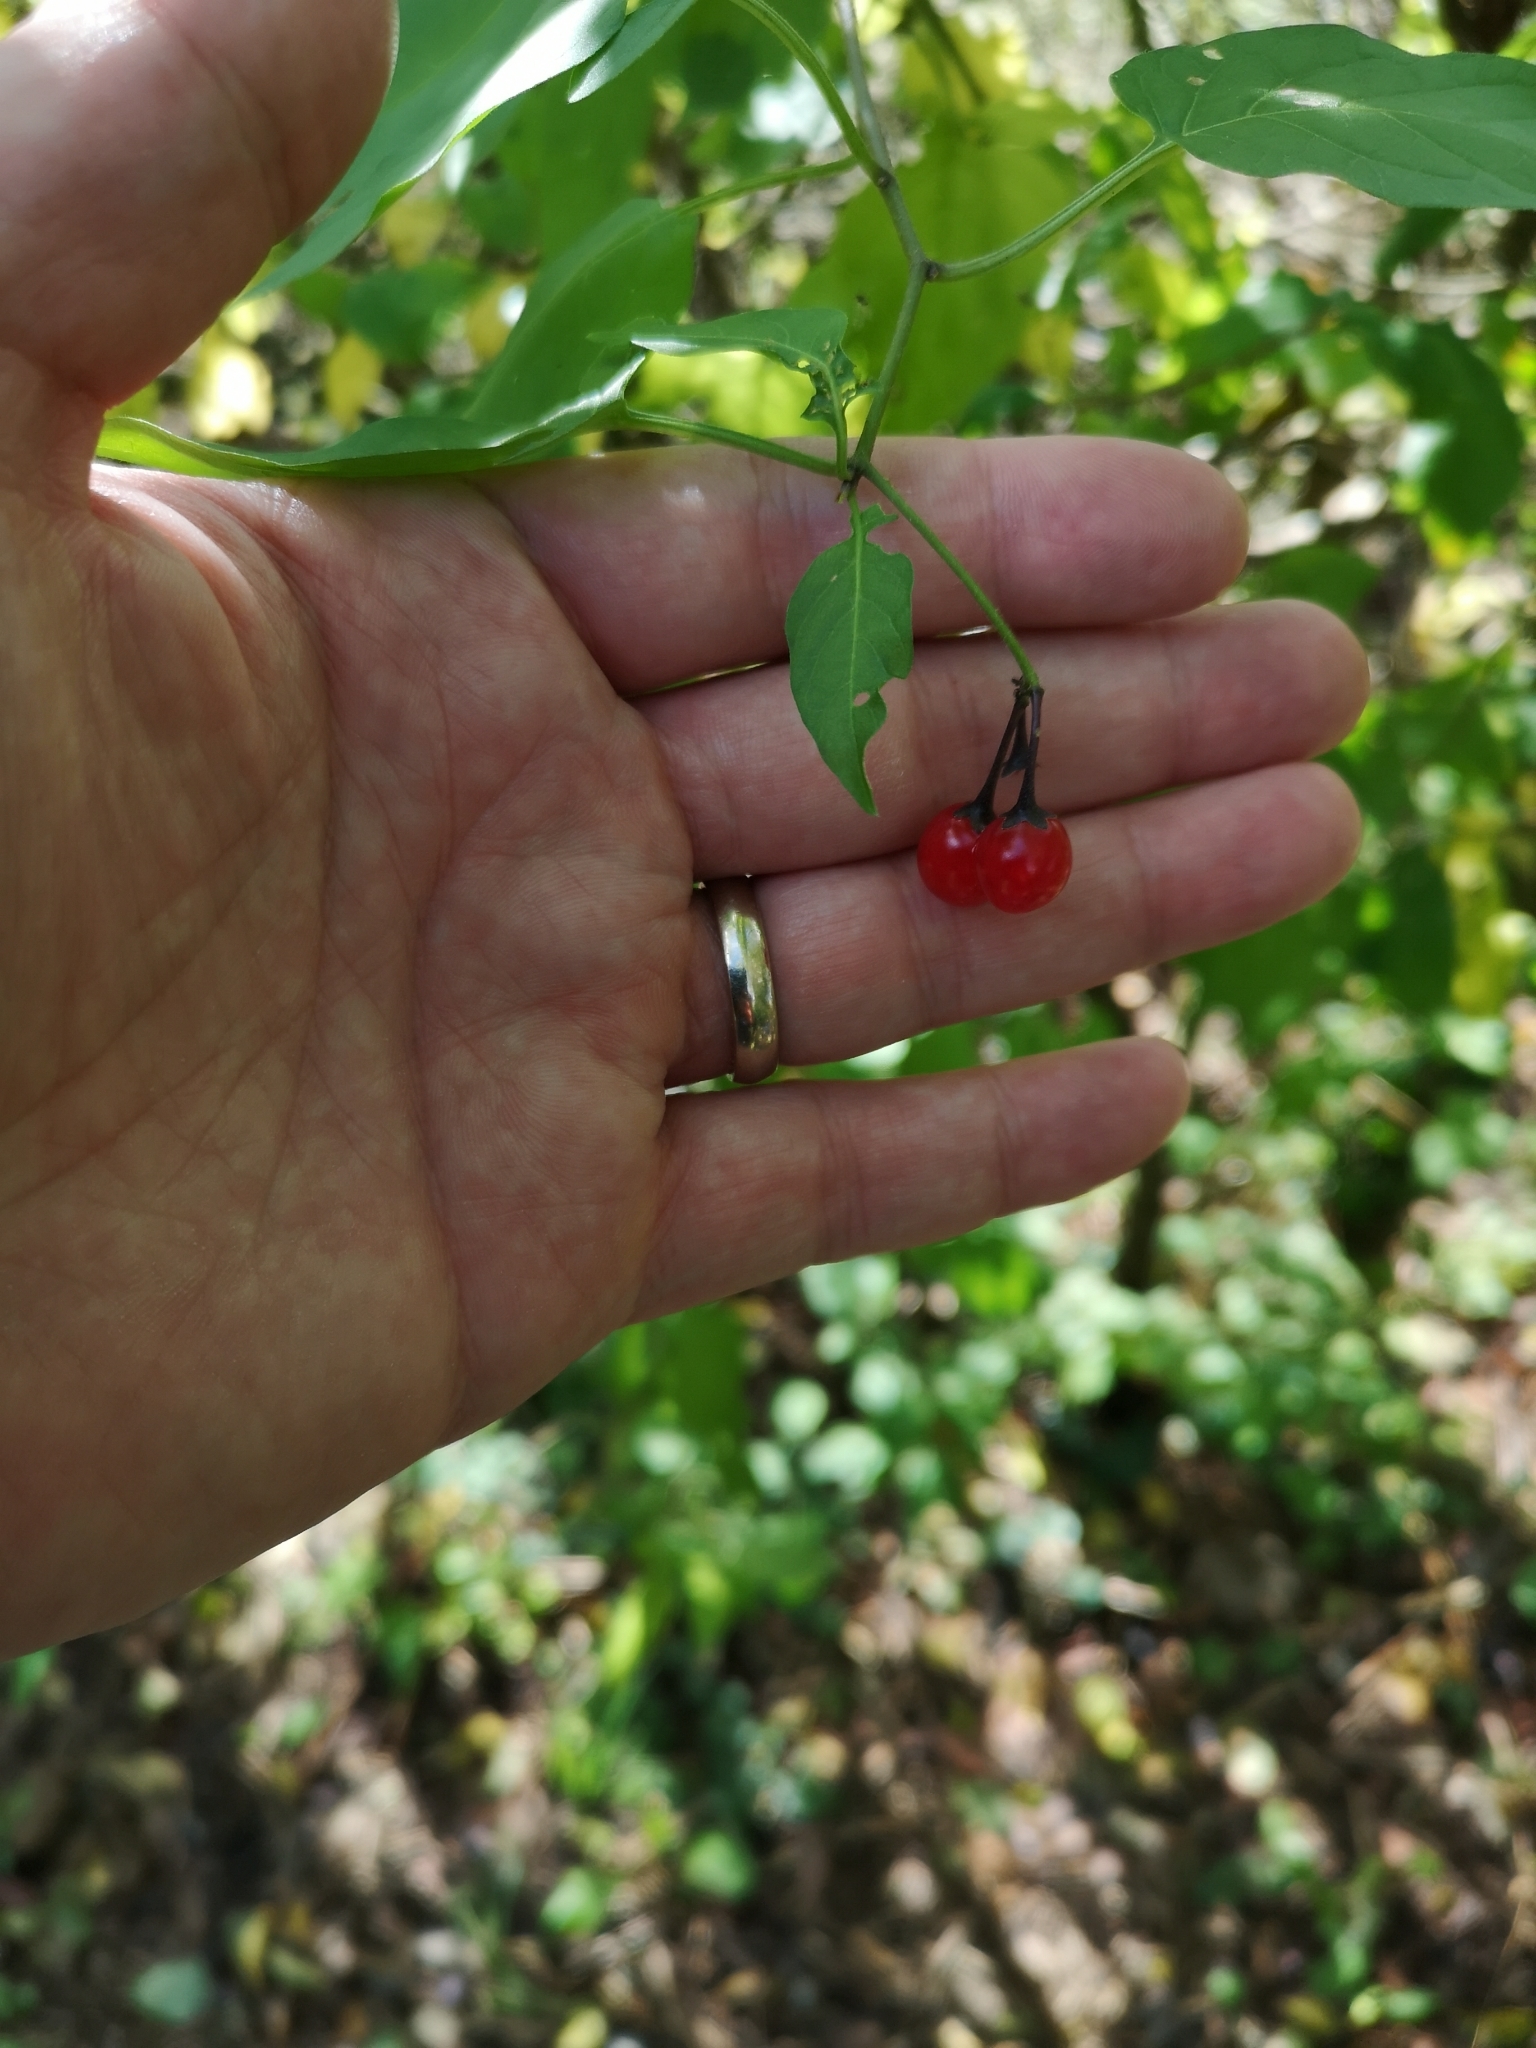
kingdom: Plantae
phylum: Tracheophyta
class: Magnoliopsida
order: Solanales
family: Solanaceae
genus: Solanum
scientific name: Solanum dulcamara
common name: Climbing nightshade
